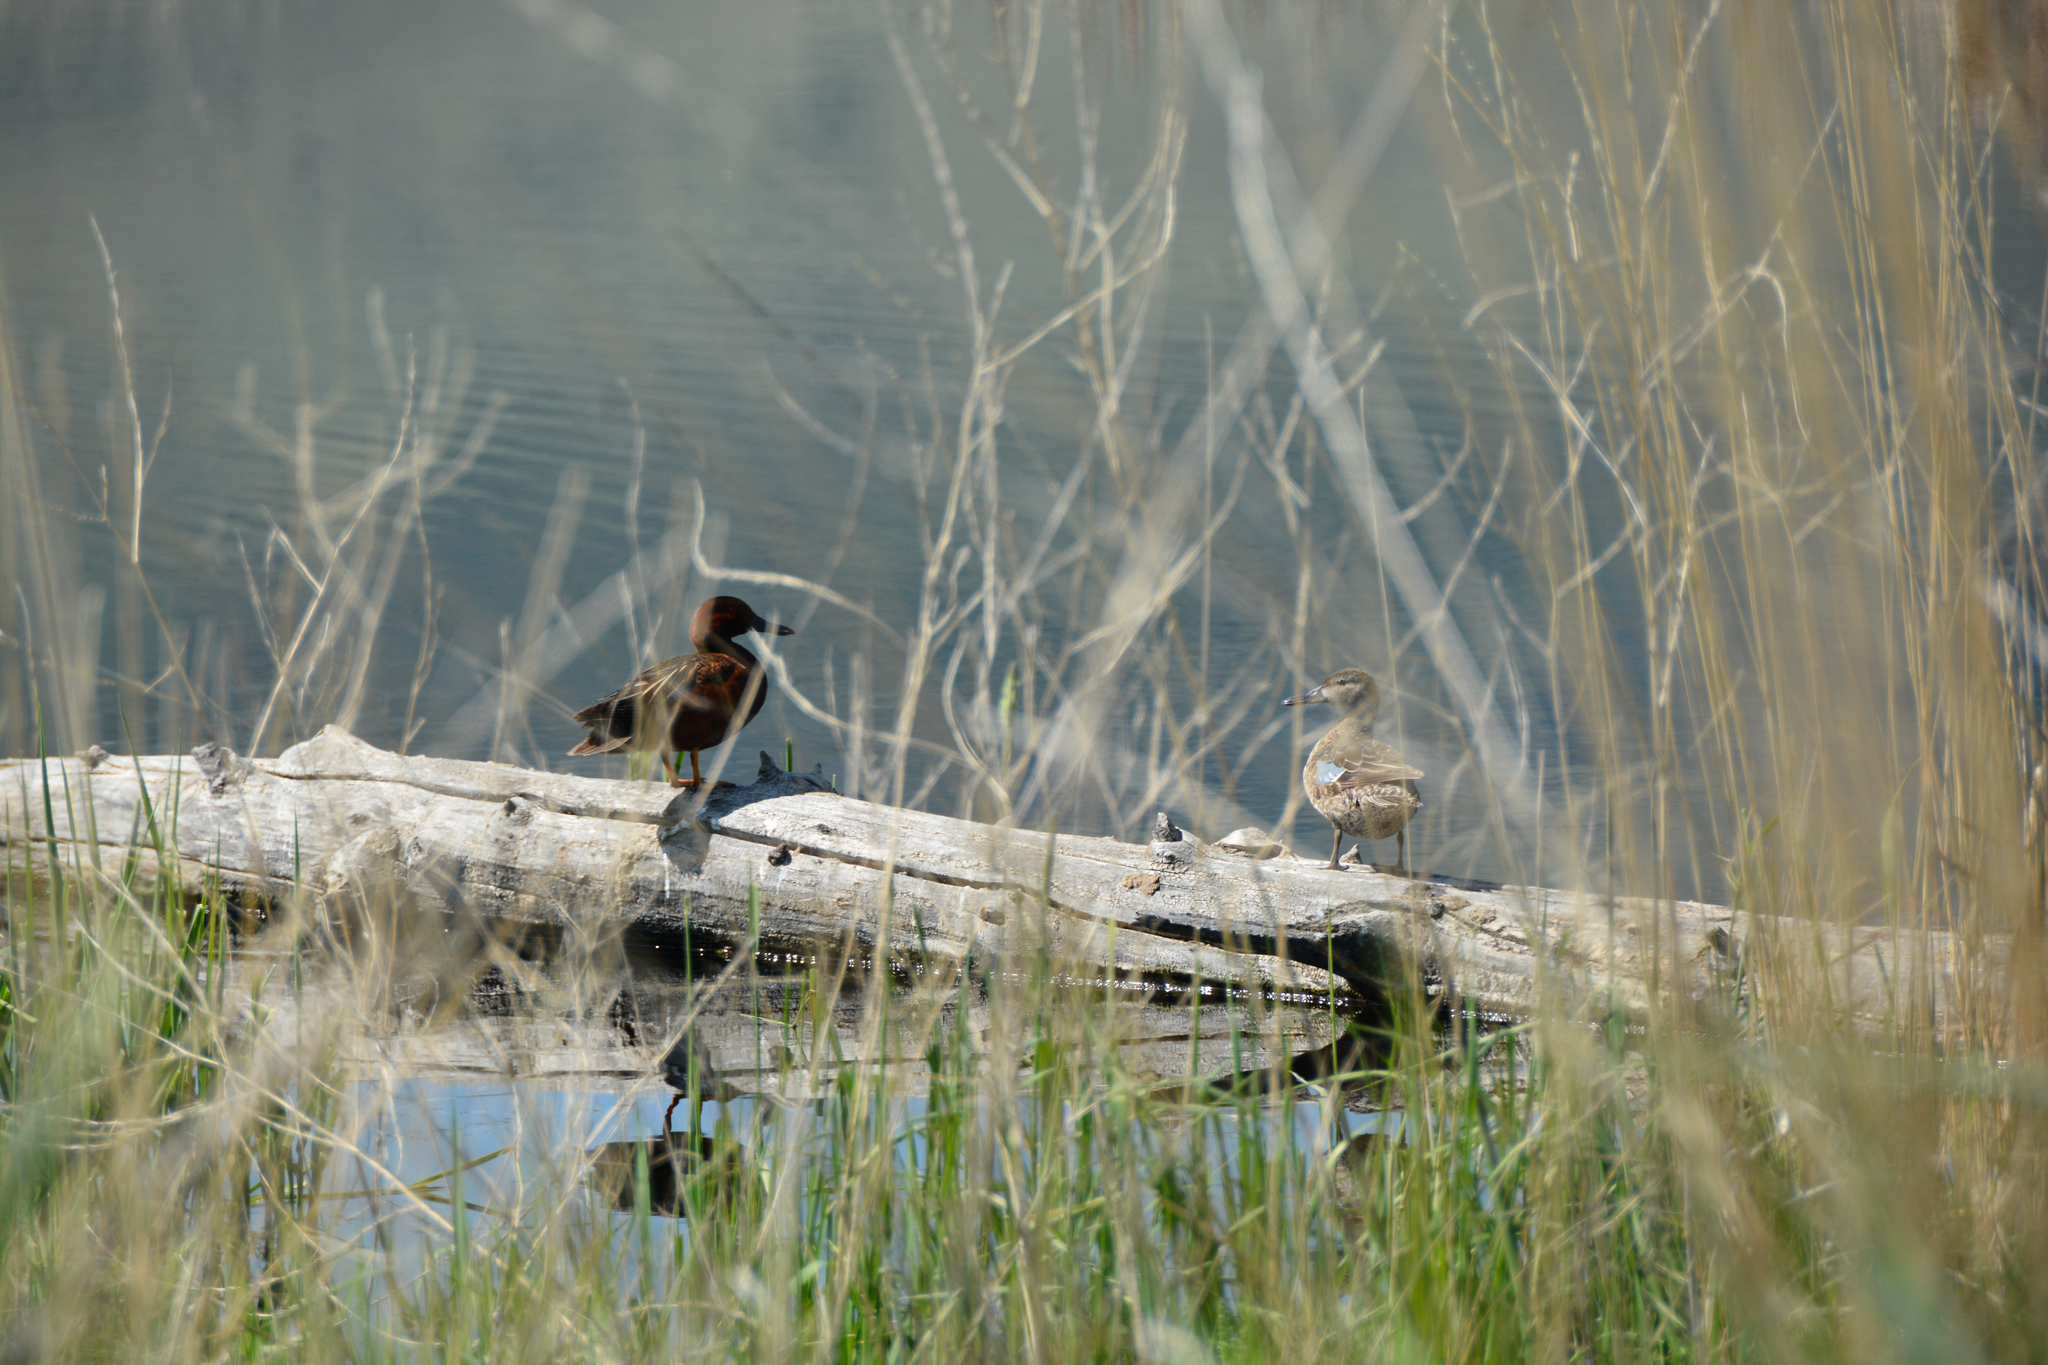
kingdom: Animalia
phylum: Chordata
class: Aves
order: Anseriformes
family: Anatidae
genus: Spatula
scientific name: Spatula cyanoptera
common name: Cinnamon teal
